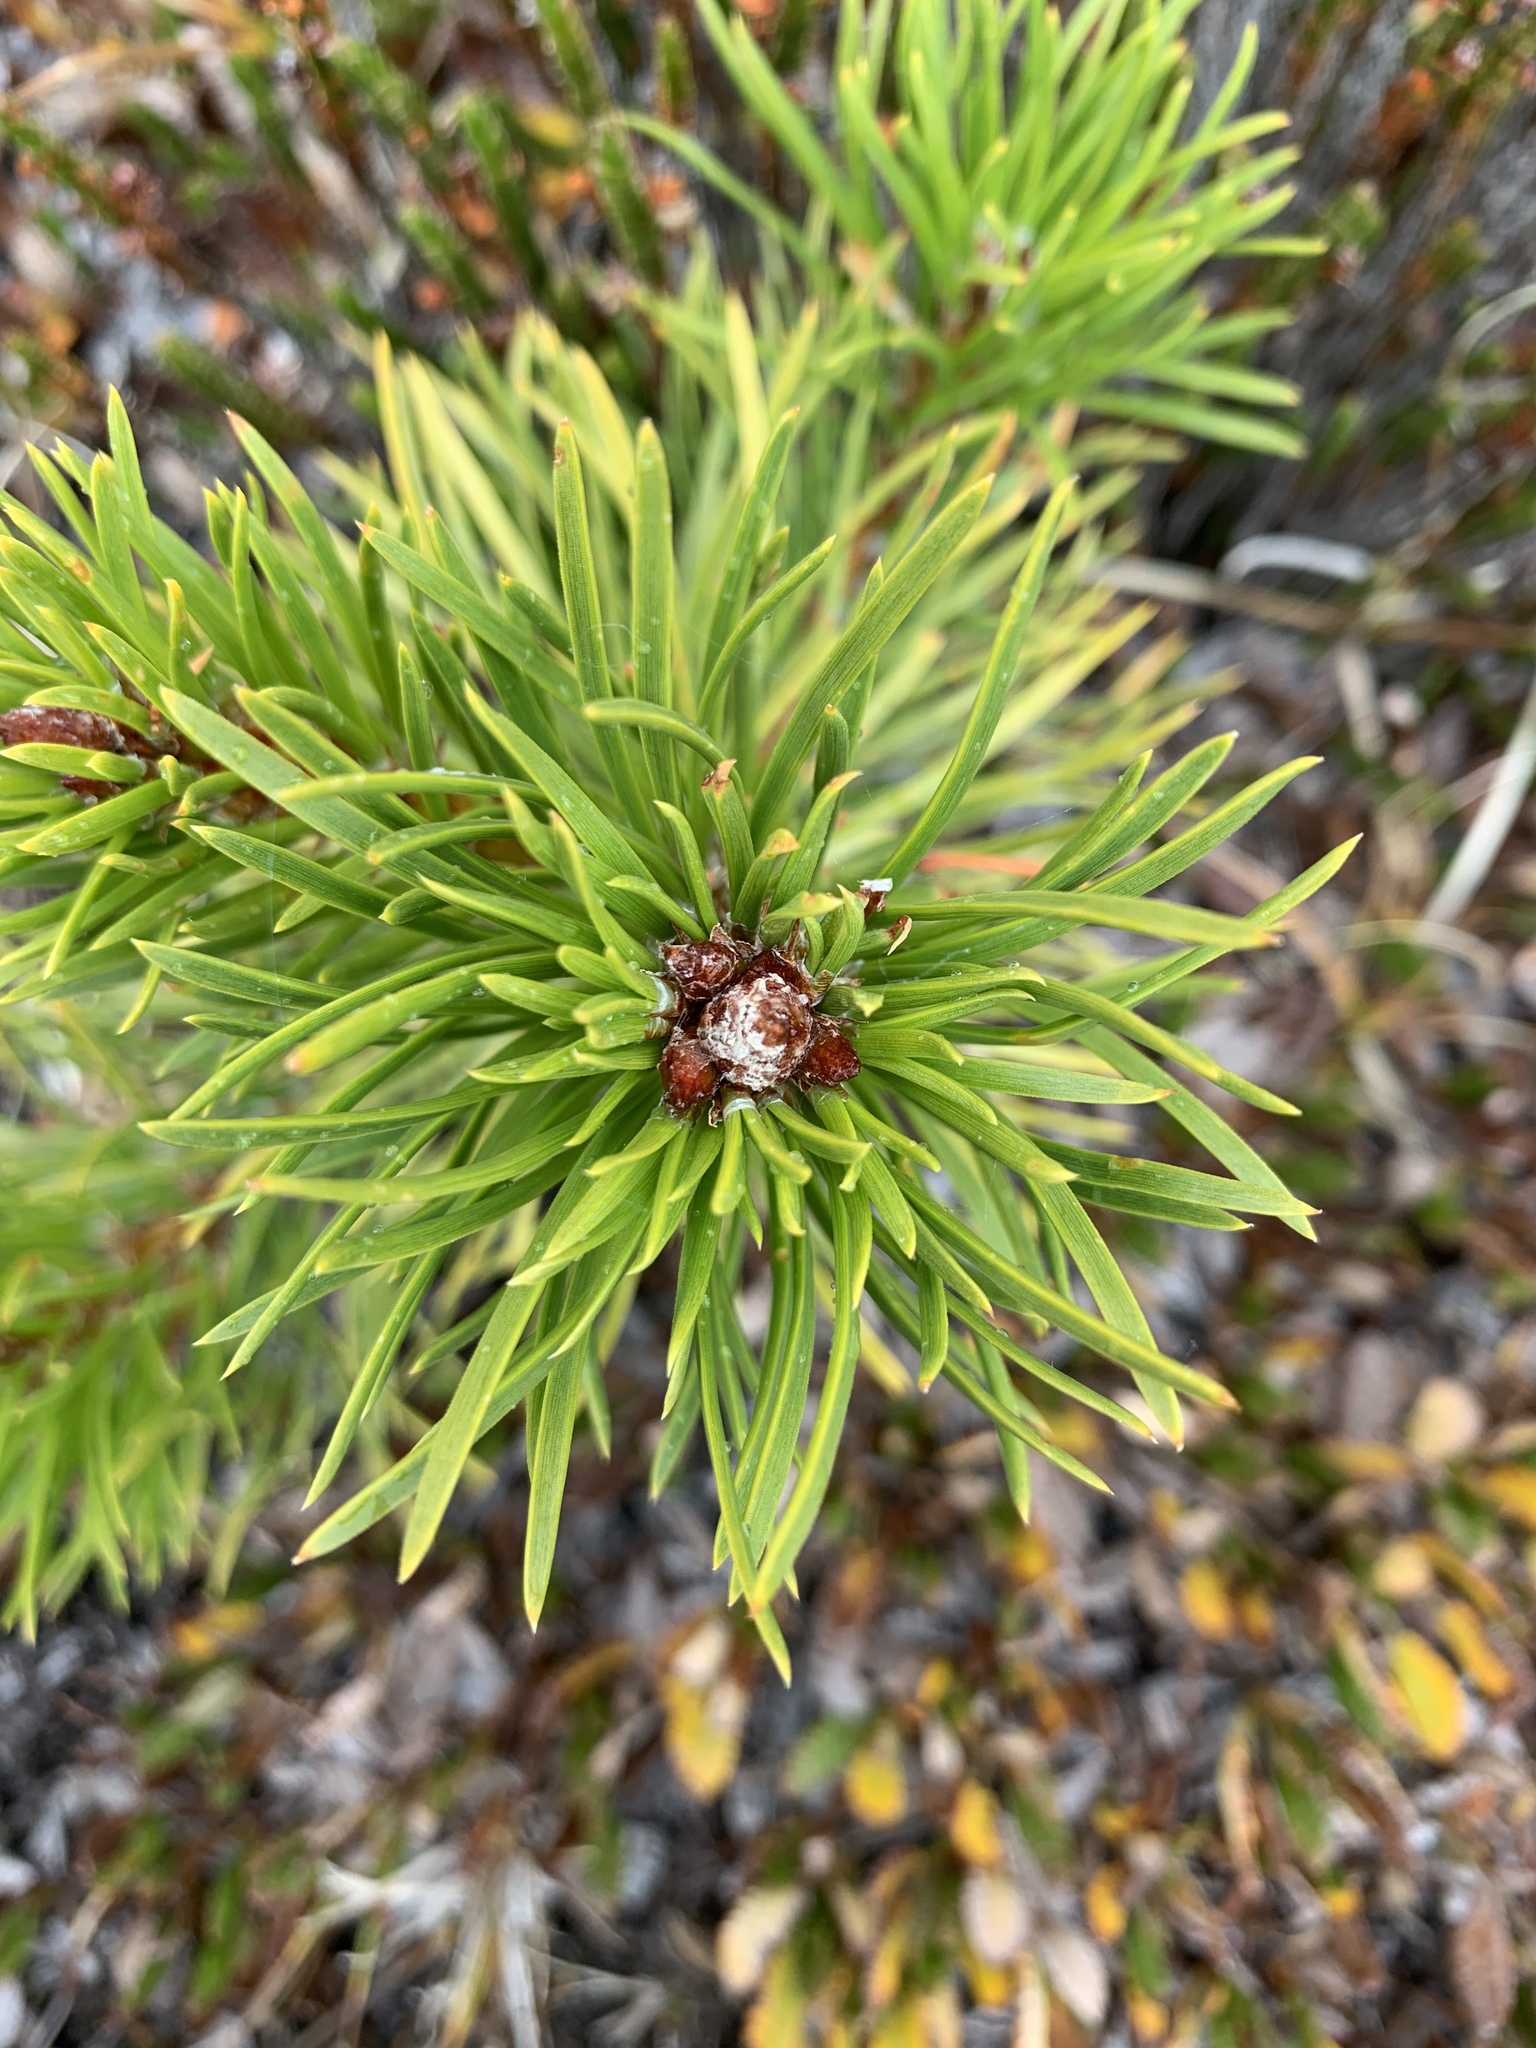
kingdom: Plantae
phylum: Tracheophyta
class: Pinopsida
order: Pinales
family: Pinaceae
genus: Pinus
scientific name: Pinus contorta
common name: Lodgepole pine
